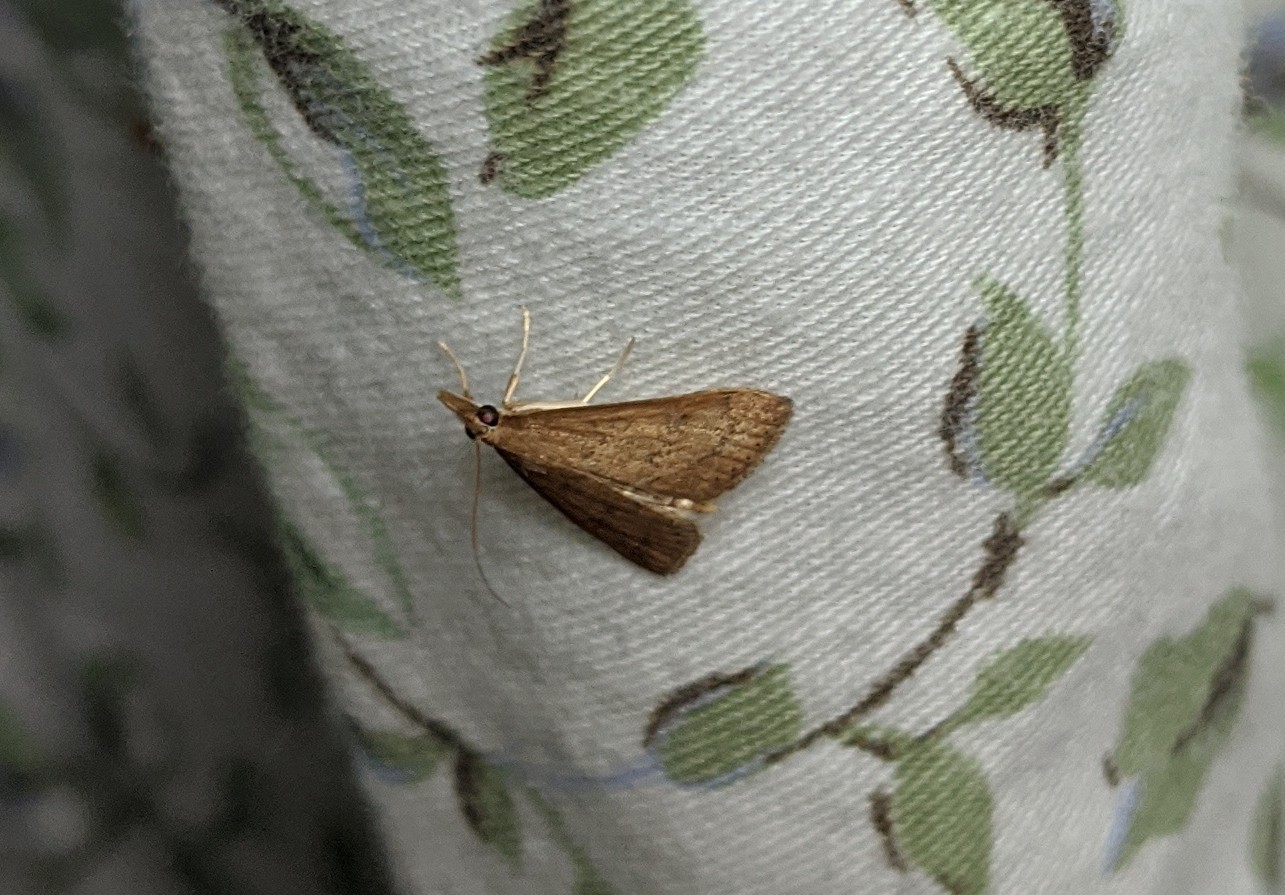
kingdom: Animalia
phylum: Arthropoda
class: Insecta
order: Lepidoptera
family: Crambidae
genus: Udea
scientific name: Udea rubigalis
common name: Celery leaftier moth
